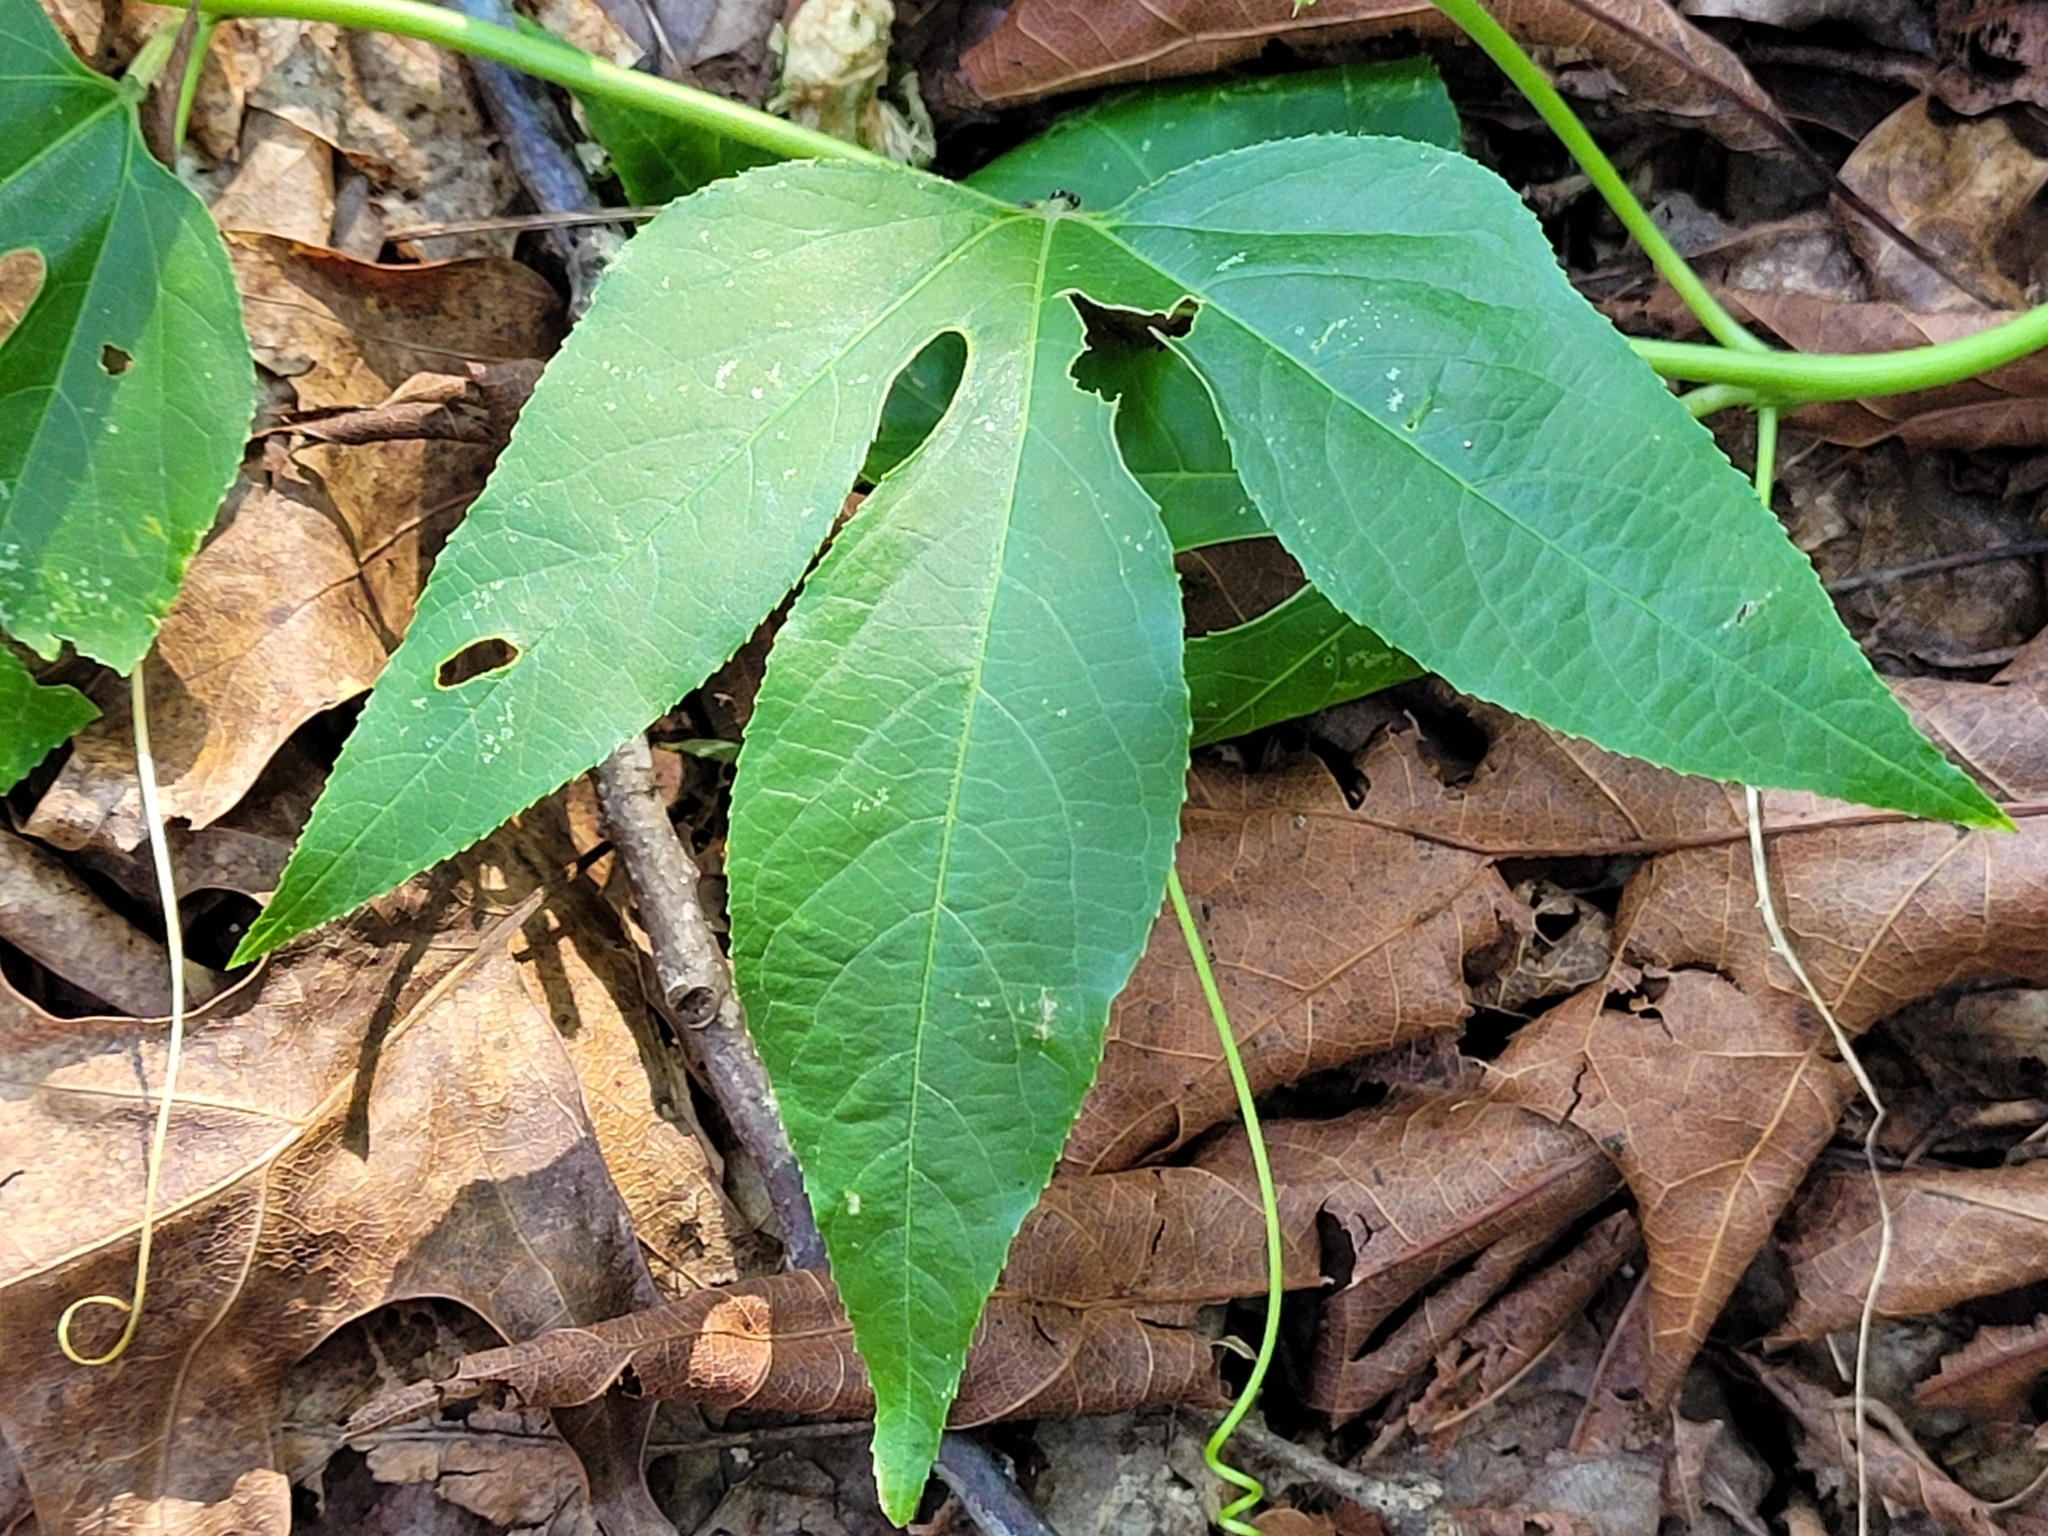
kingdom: Plantae
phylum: Tracheophyta
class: Magnoliopsida
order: Malpighiales
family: Passifloraceae
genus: Passiflora
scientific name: Passiflora incarnata
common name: Apricot-vine
